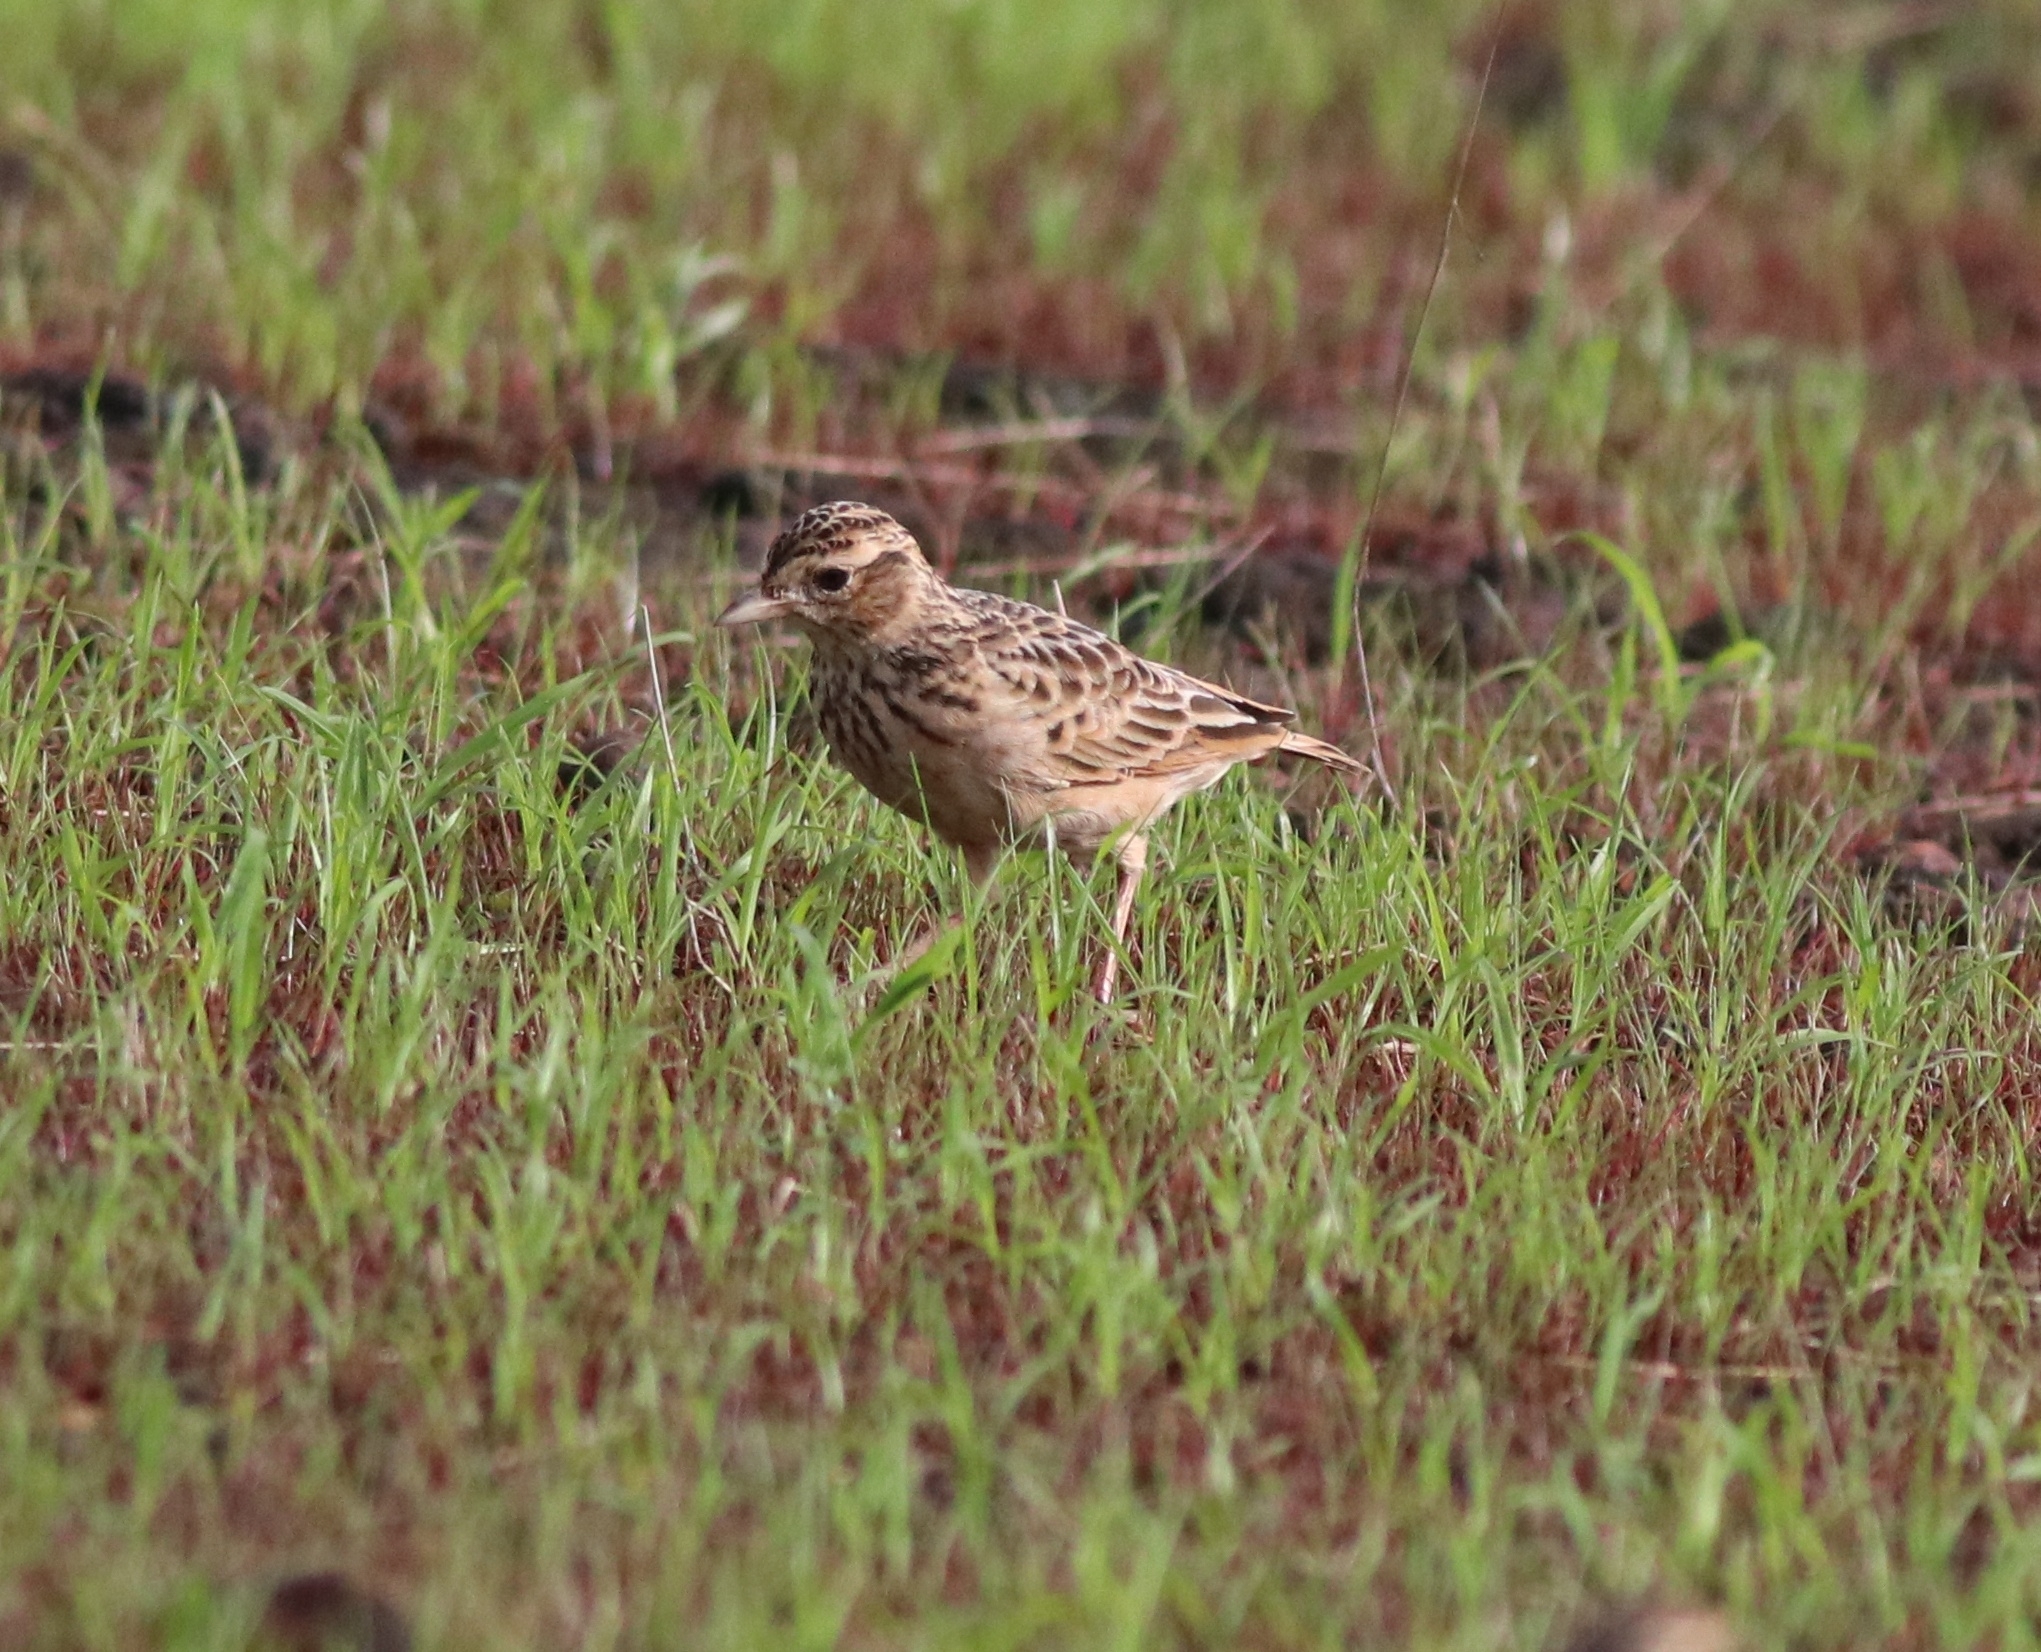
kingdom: Animalia
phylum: Chordata
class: Aves
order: Passeriformes
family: Alaudidae
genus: Alauda
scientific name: Alauda gulgula
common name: Oriental skylark
